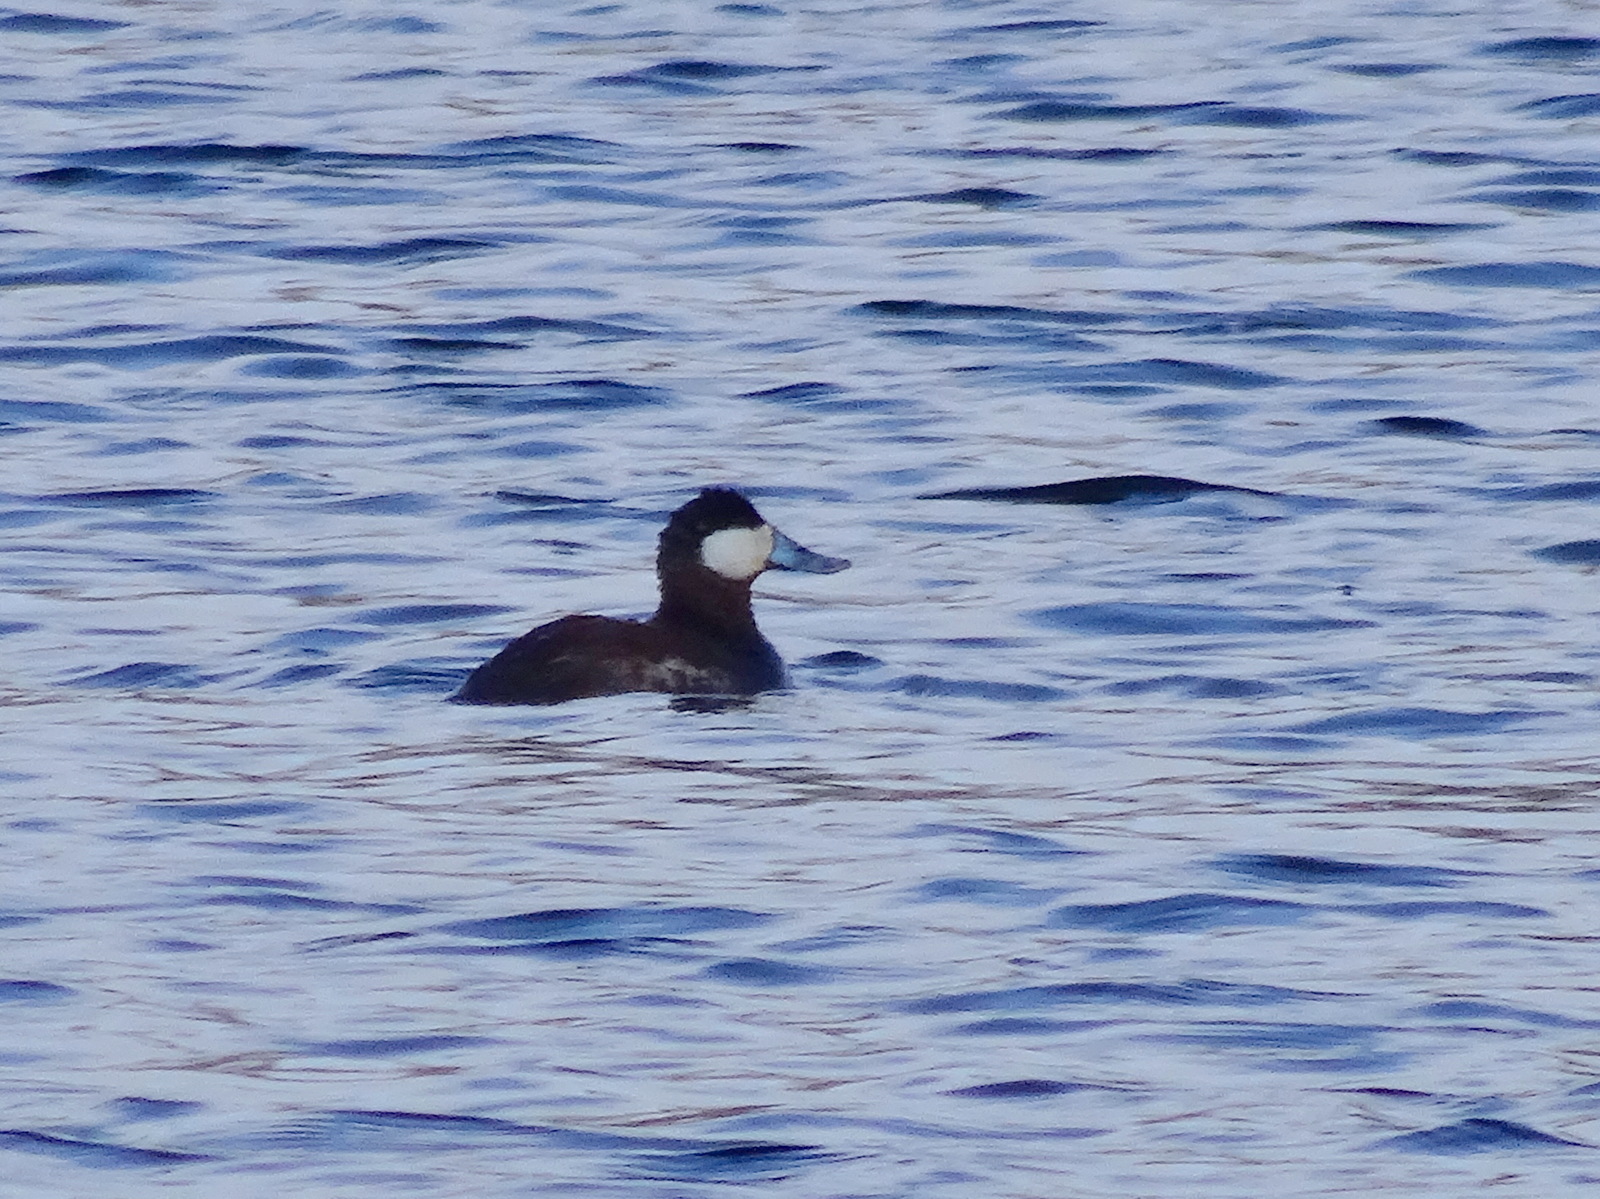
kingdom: Animalia
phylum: Chordata
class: Aves
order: Anseriformes
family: Anatidae
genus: Oxyura
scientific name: Oxyura jamaicensis
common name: Ruddy duck
